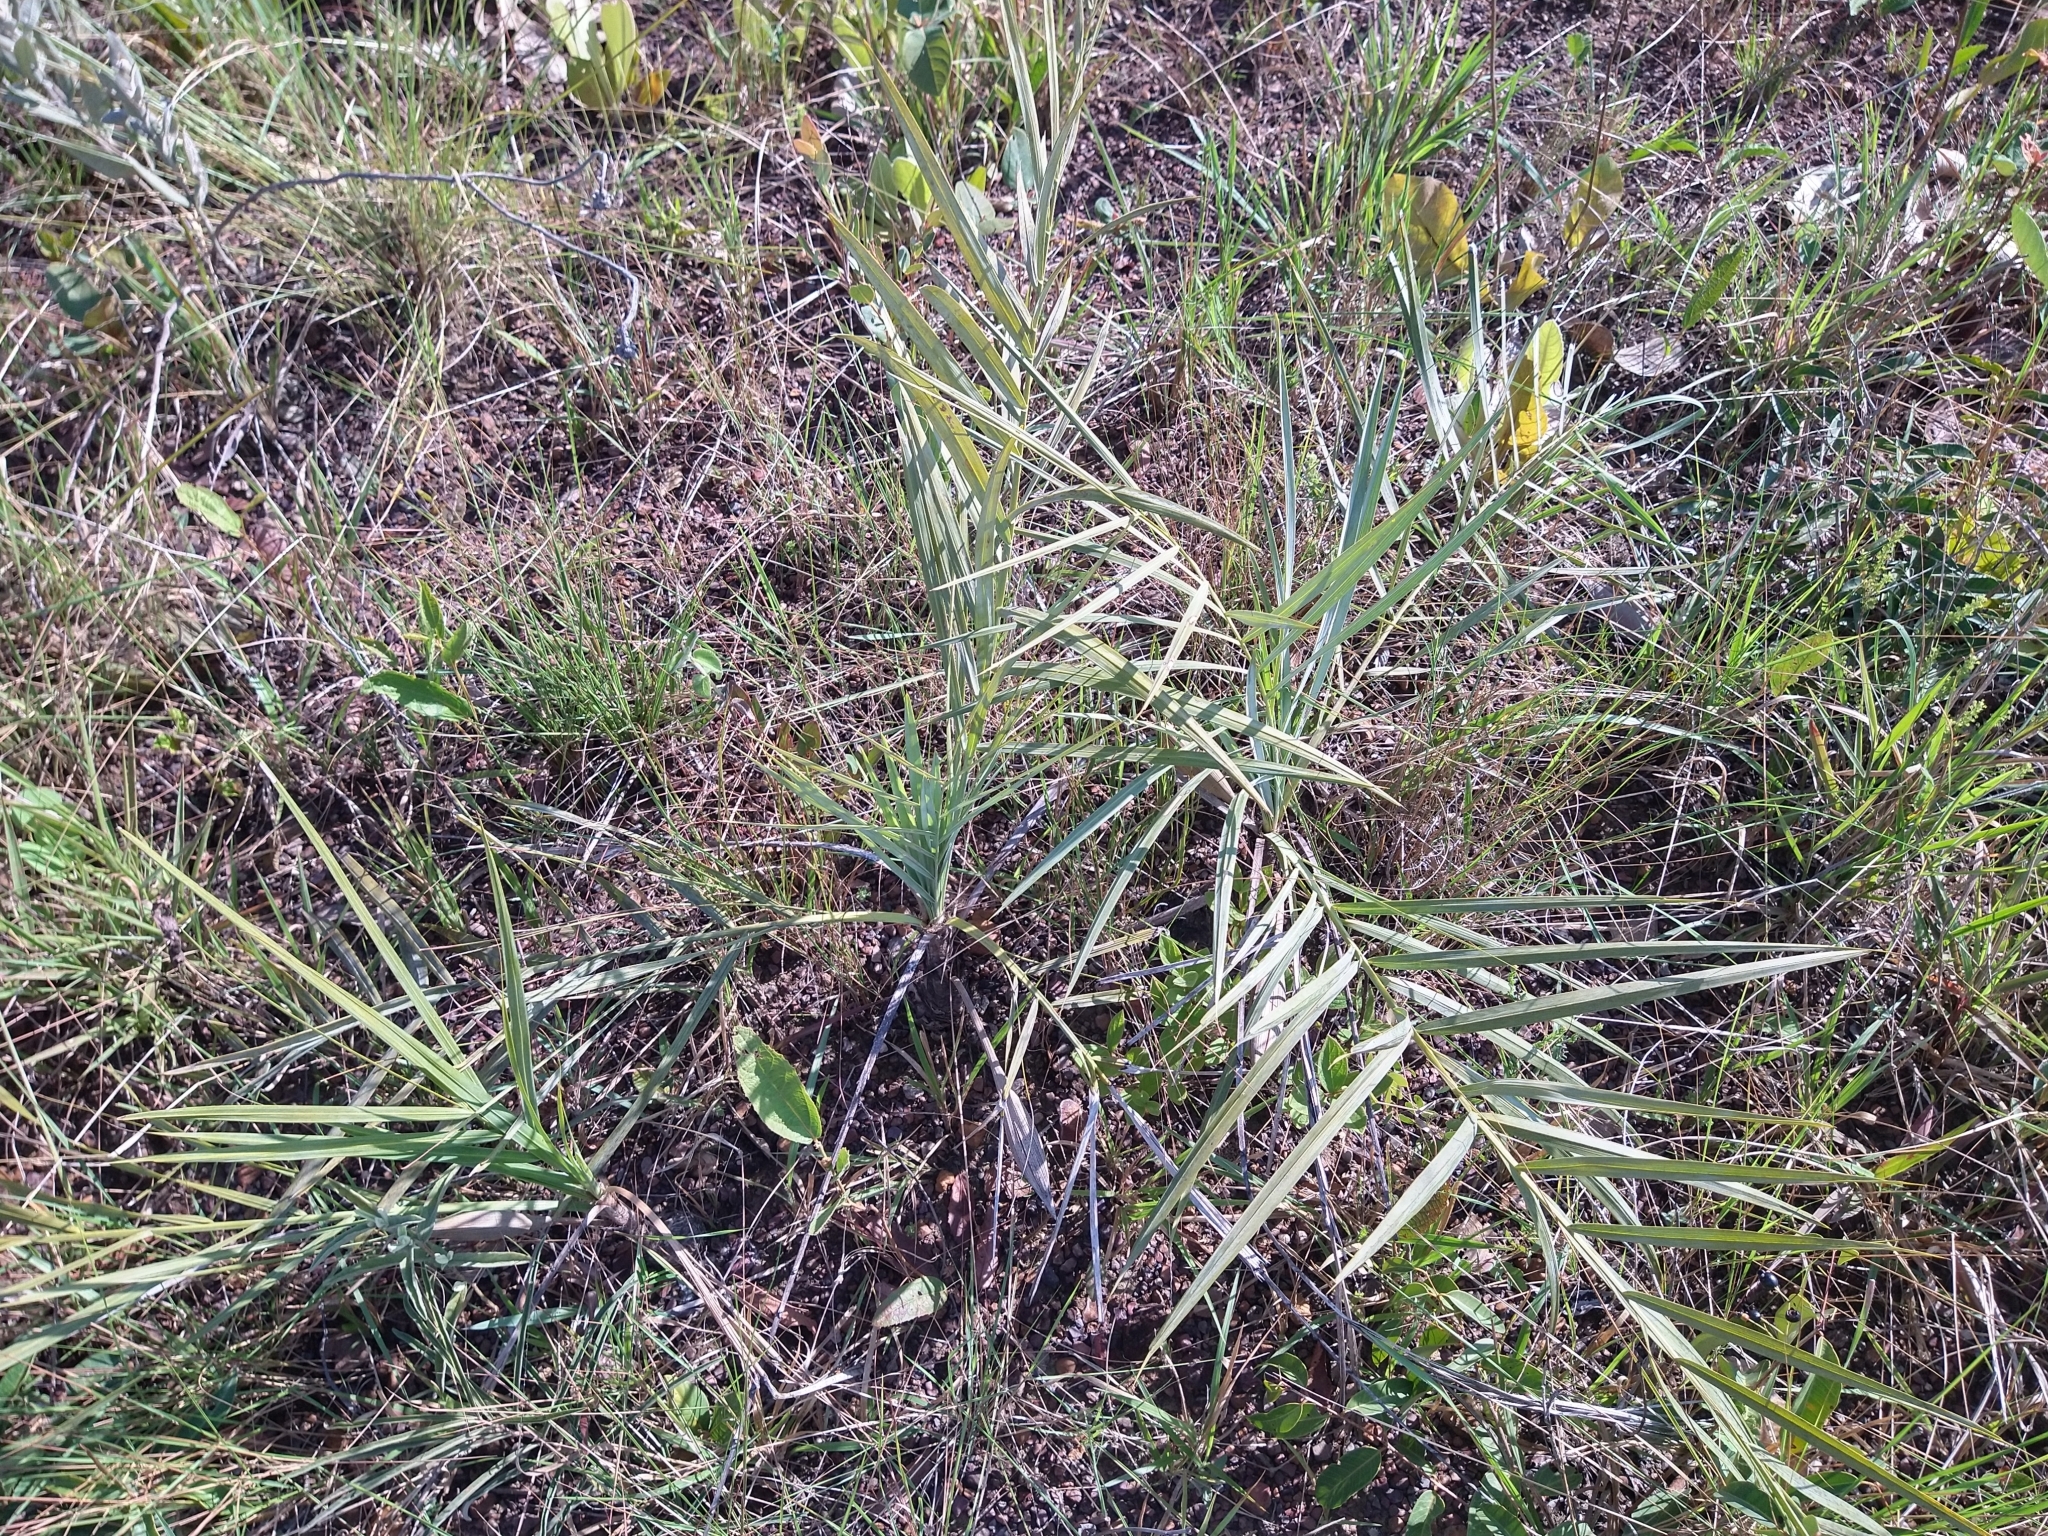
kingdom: Plantae
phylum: Tracheophyta
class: Liliopsida
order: Arecales
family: Arecaceae
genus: Syagrus
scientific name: Syagrus glazioviana
